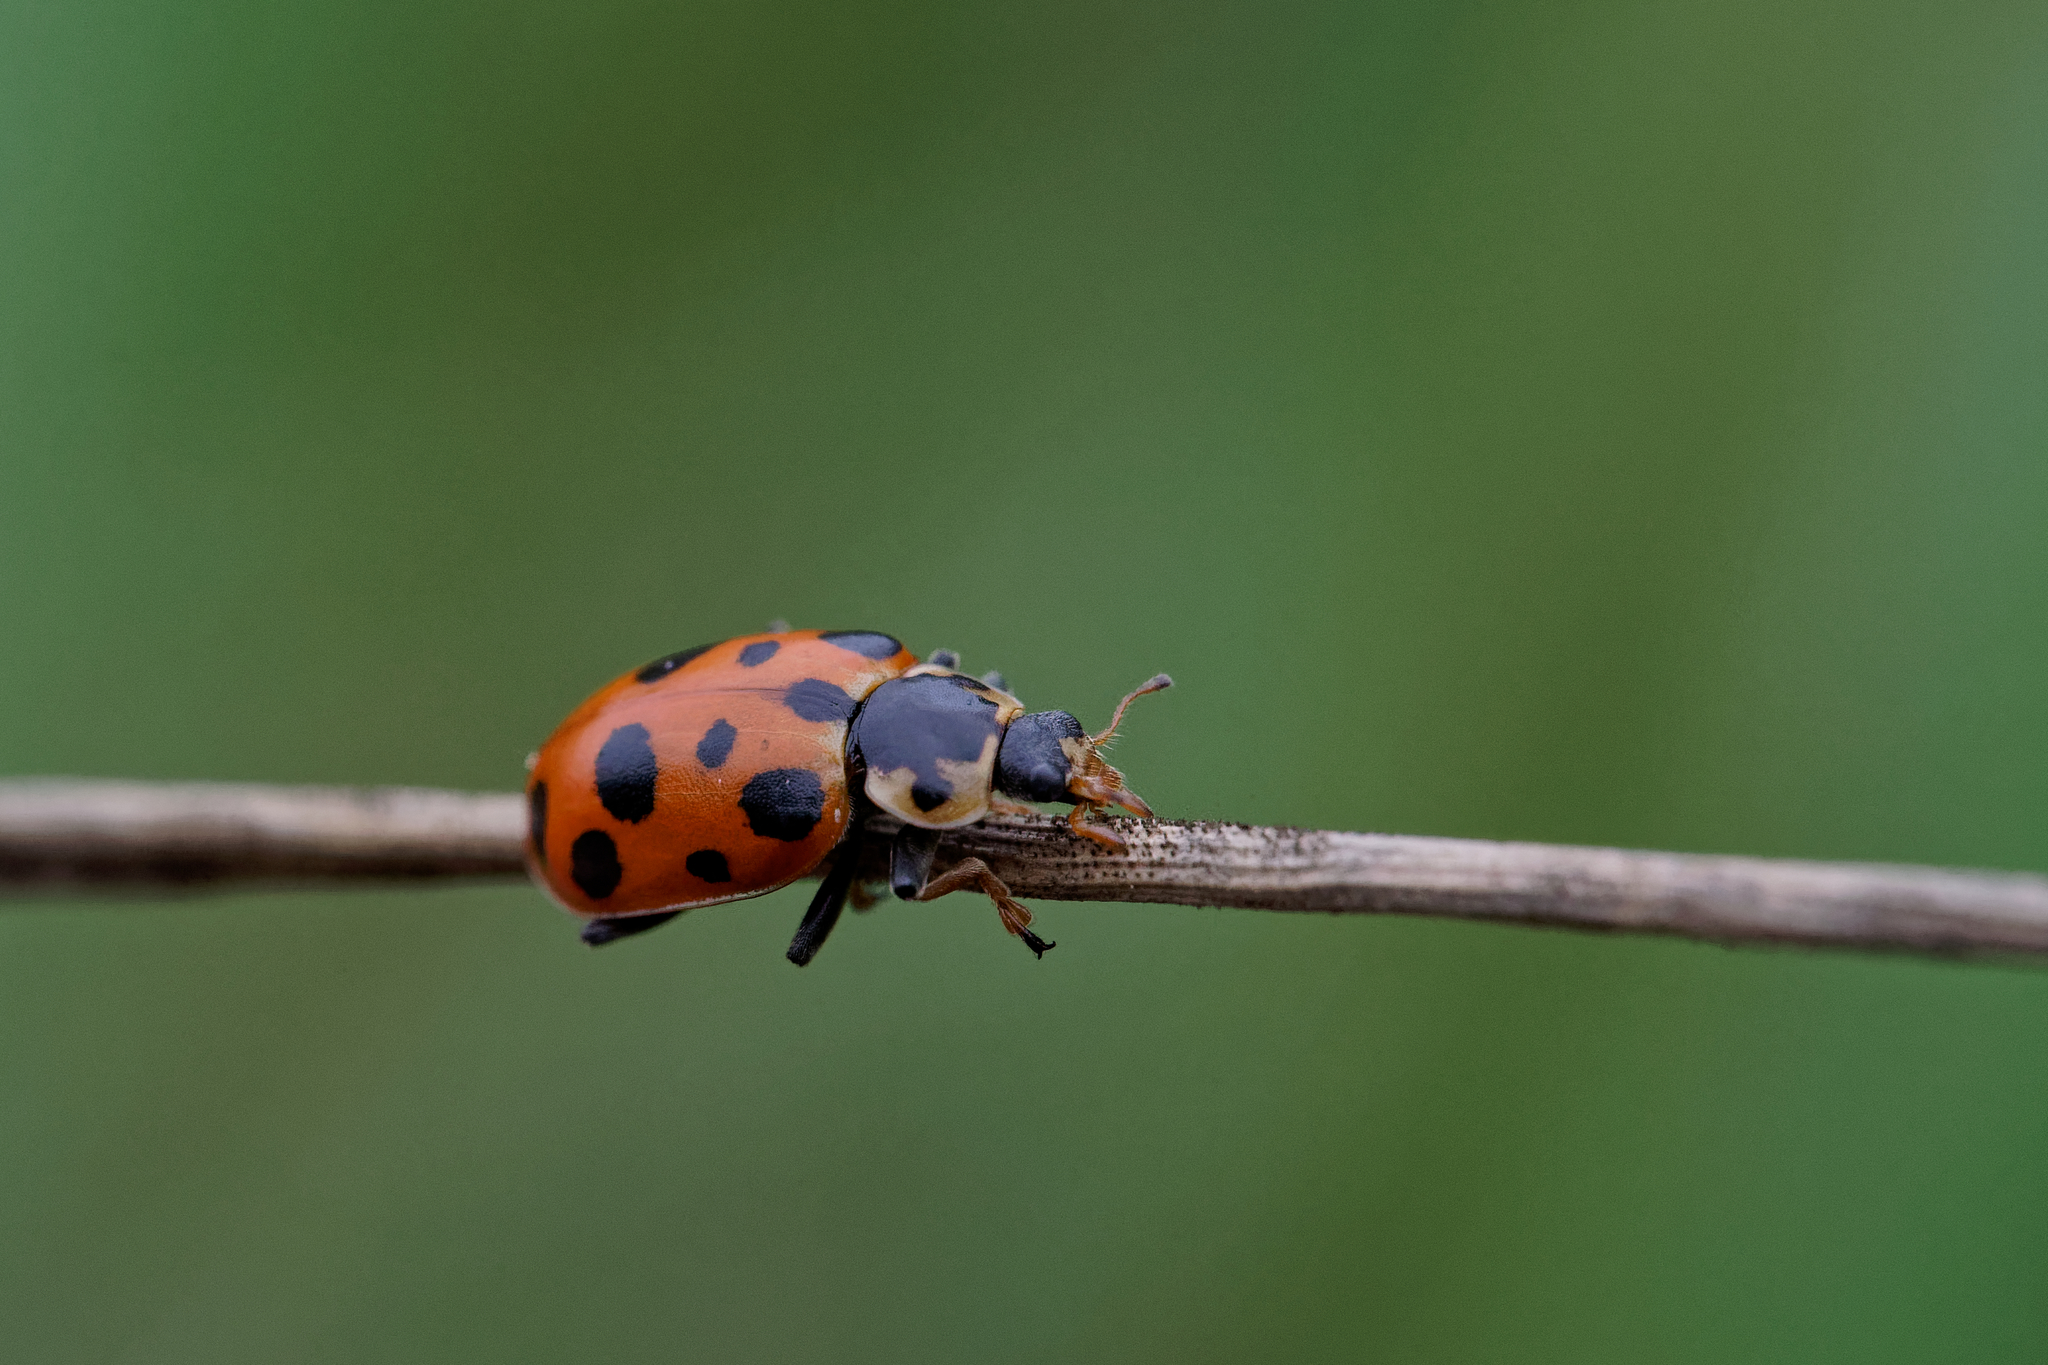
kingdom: Animalia
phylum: Arthropoda
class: Insecta
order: Coleoptera
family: Coccinellidae
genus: Hippodamia
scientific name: Hippodamia tredecimpunctata
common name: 13-spot ladybird
